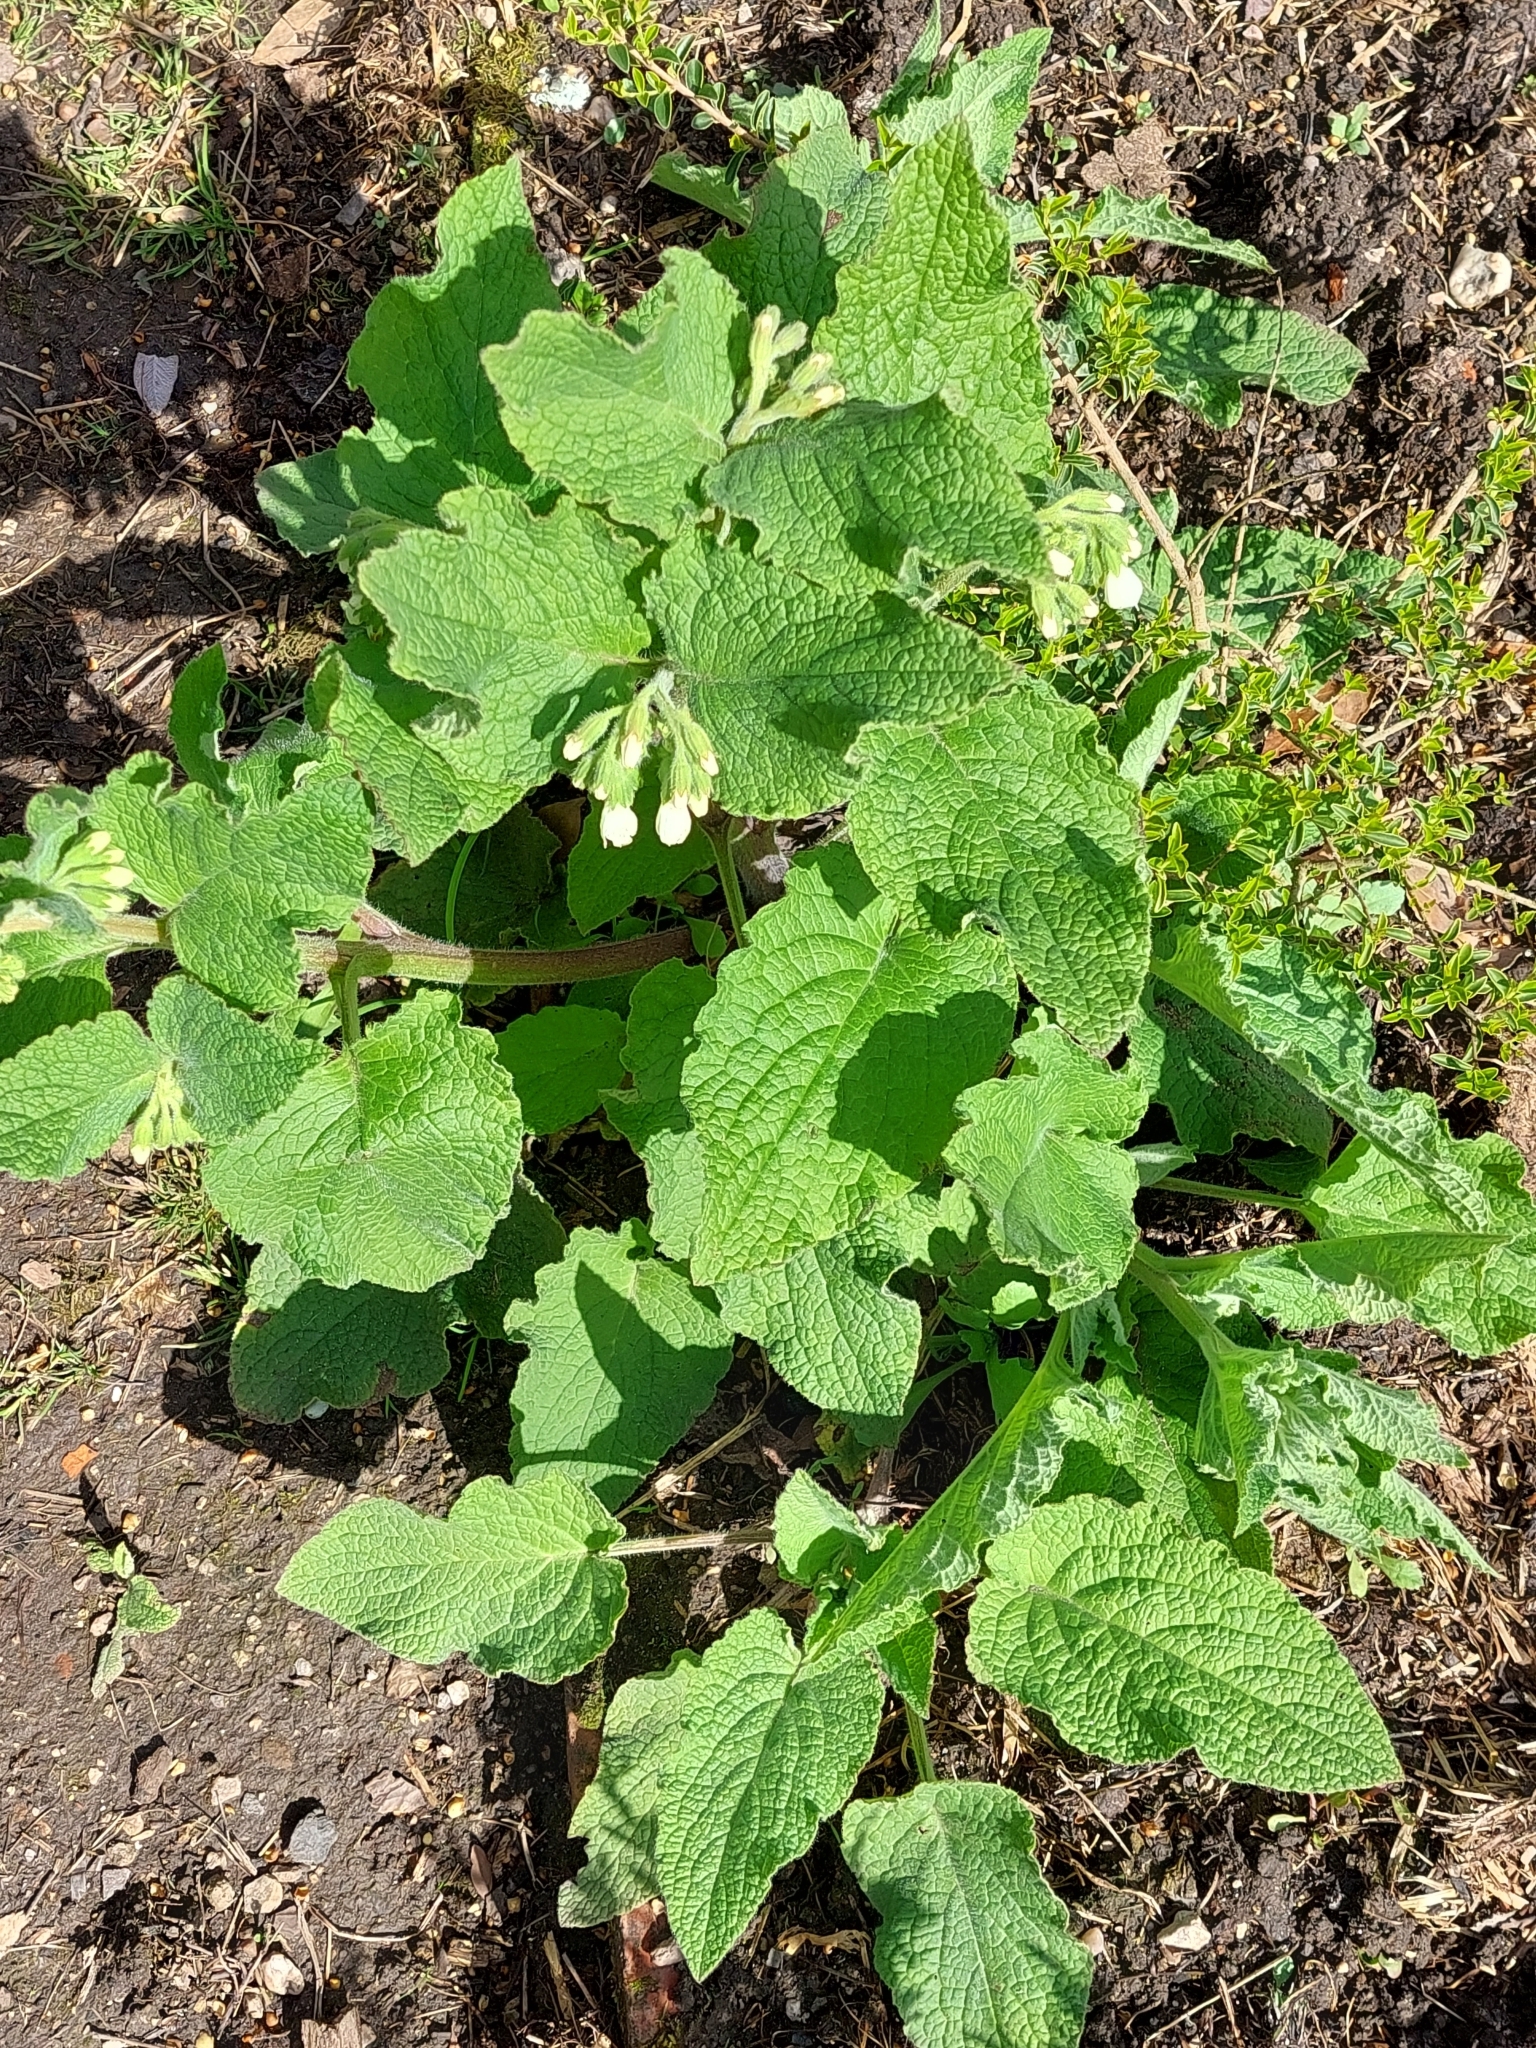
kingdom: Plantae
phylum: Tracheophyta
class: Magnoliopsida
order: Boraginales
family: Boraginaceae
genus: Symphytum
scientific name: Symphytum orientale
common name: White comfrey
